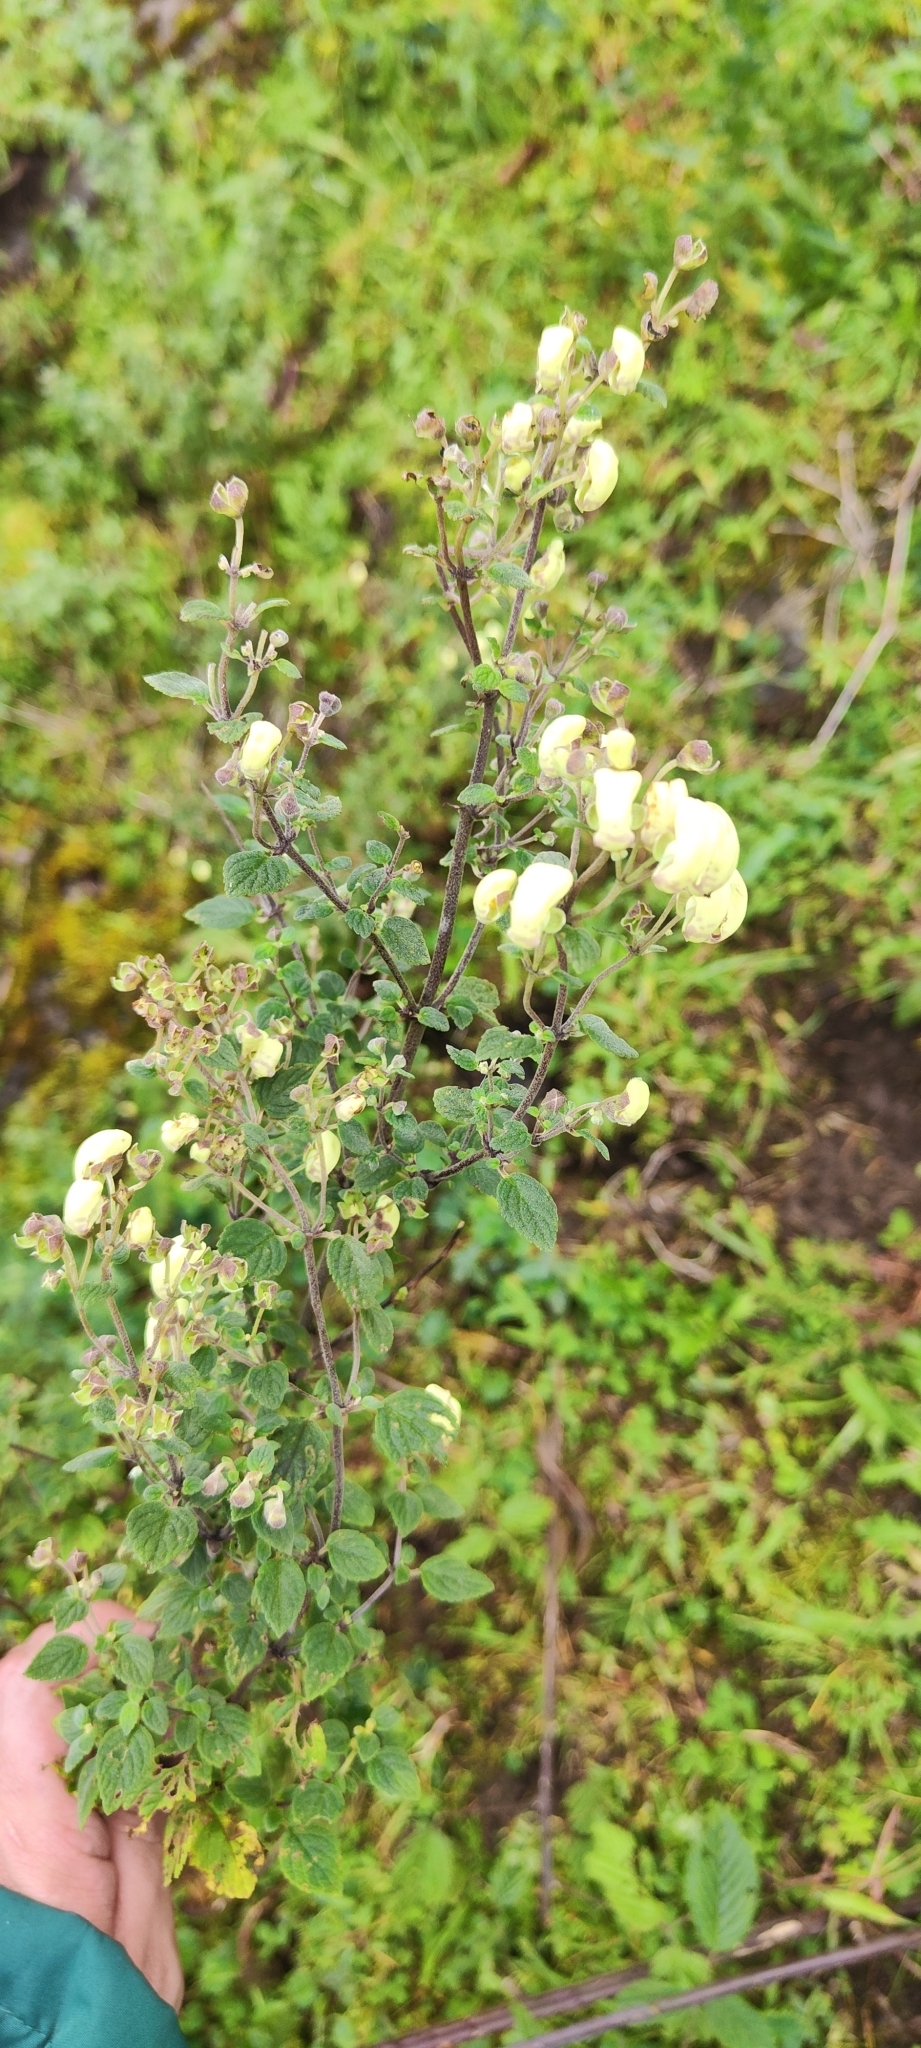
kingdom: Plantae
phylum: Tracheophyta
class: Magnoliopsida
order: Lamiales
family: Calceolariaceae
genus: Calceolaria
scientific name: Calceolaria virgata
